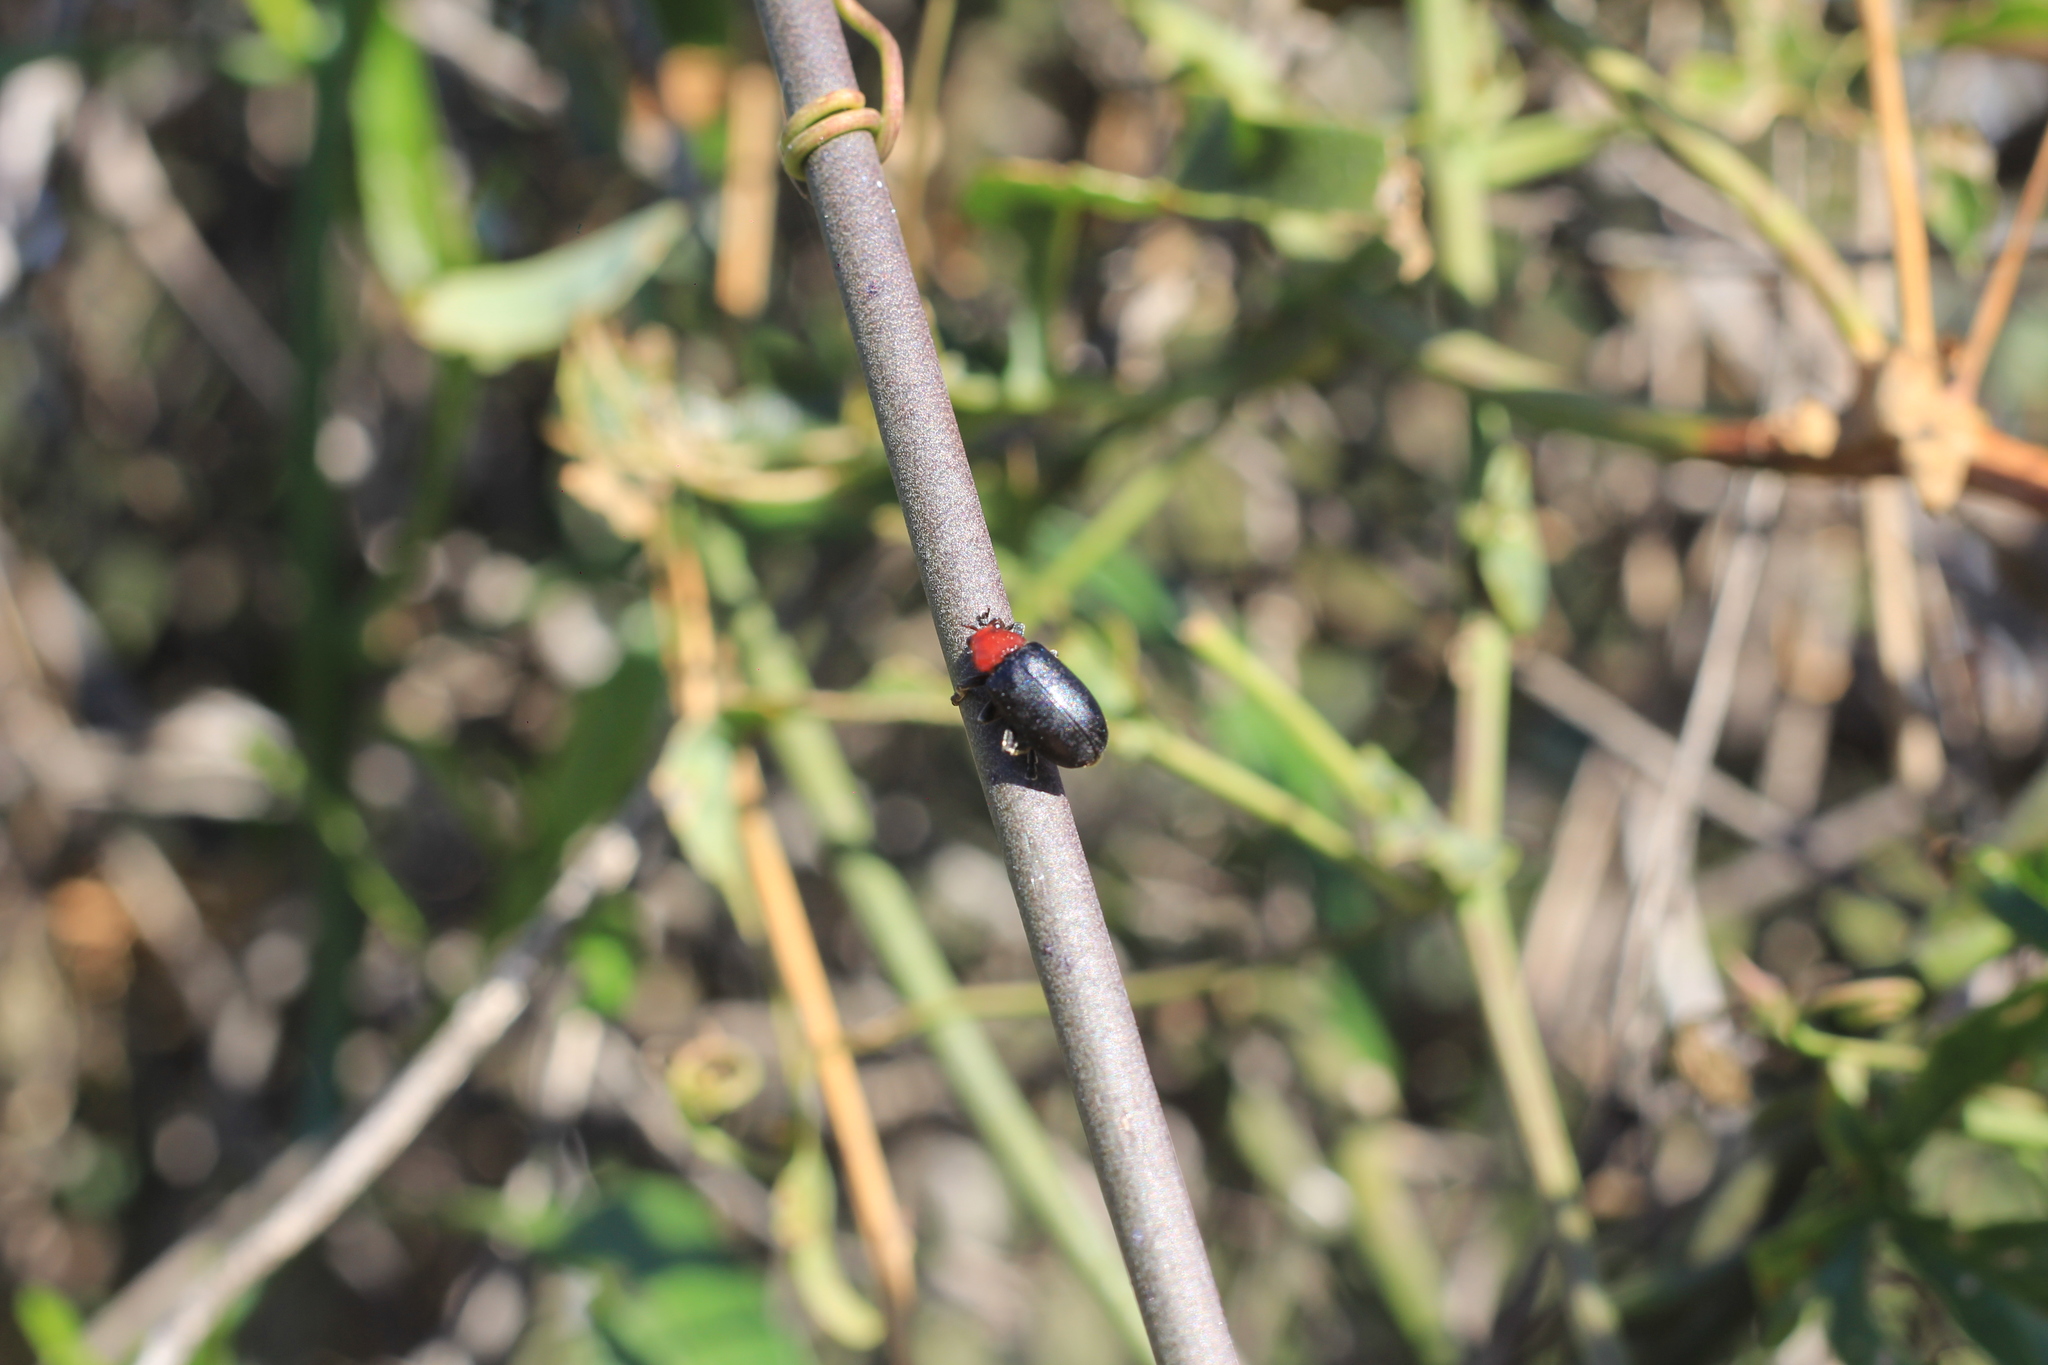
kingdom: Animalia
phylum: Arthropoda
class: Insecta
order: Coleoptera
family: Chrysomelidae
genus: Cacoscelis
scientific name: Cacoscelis
